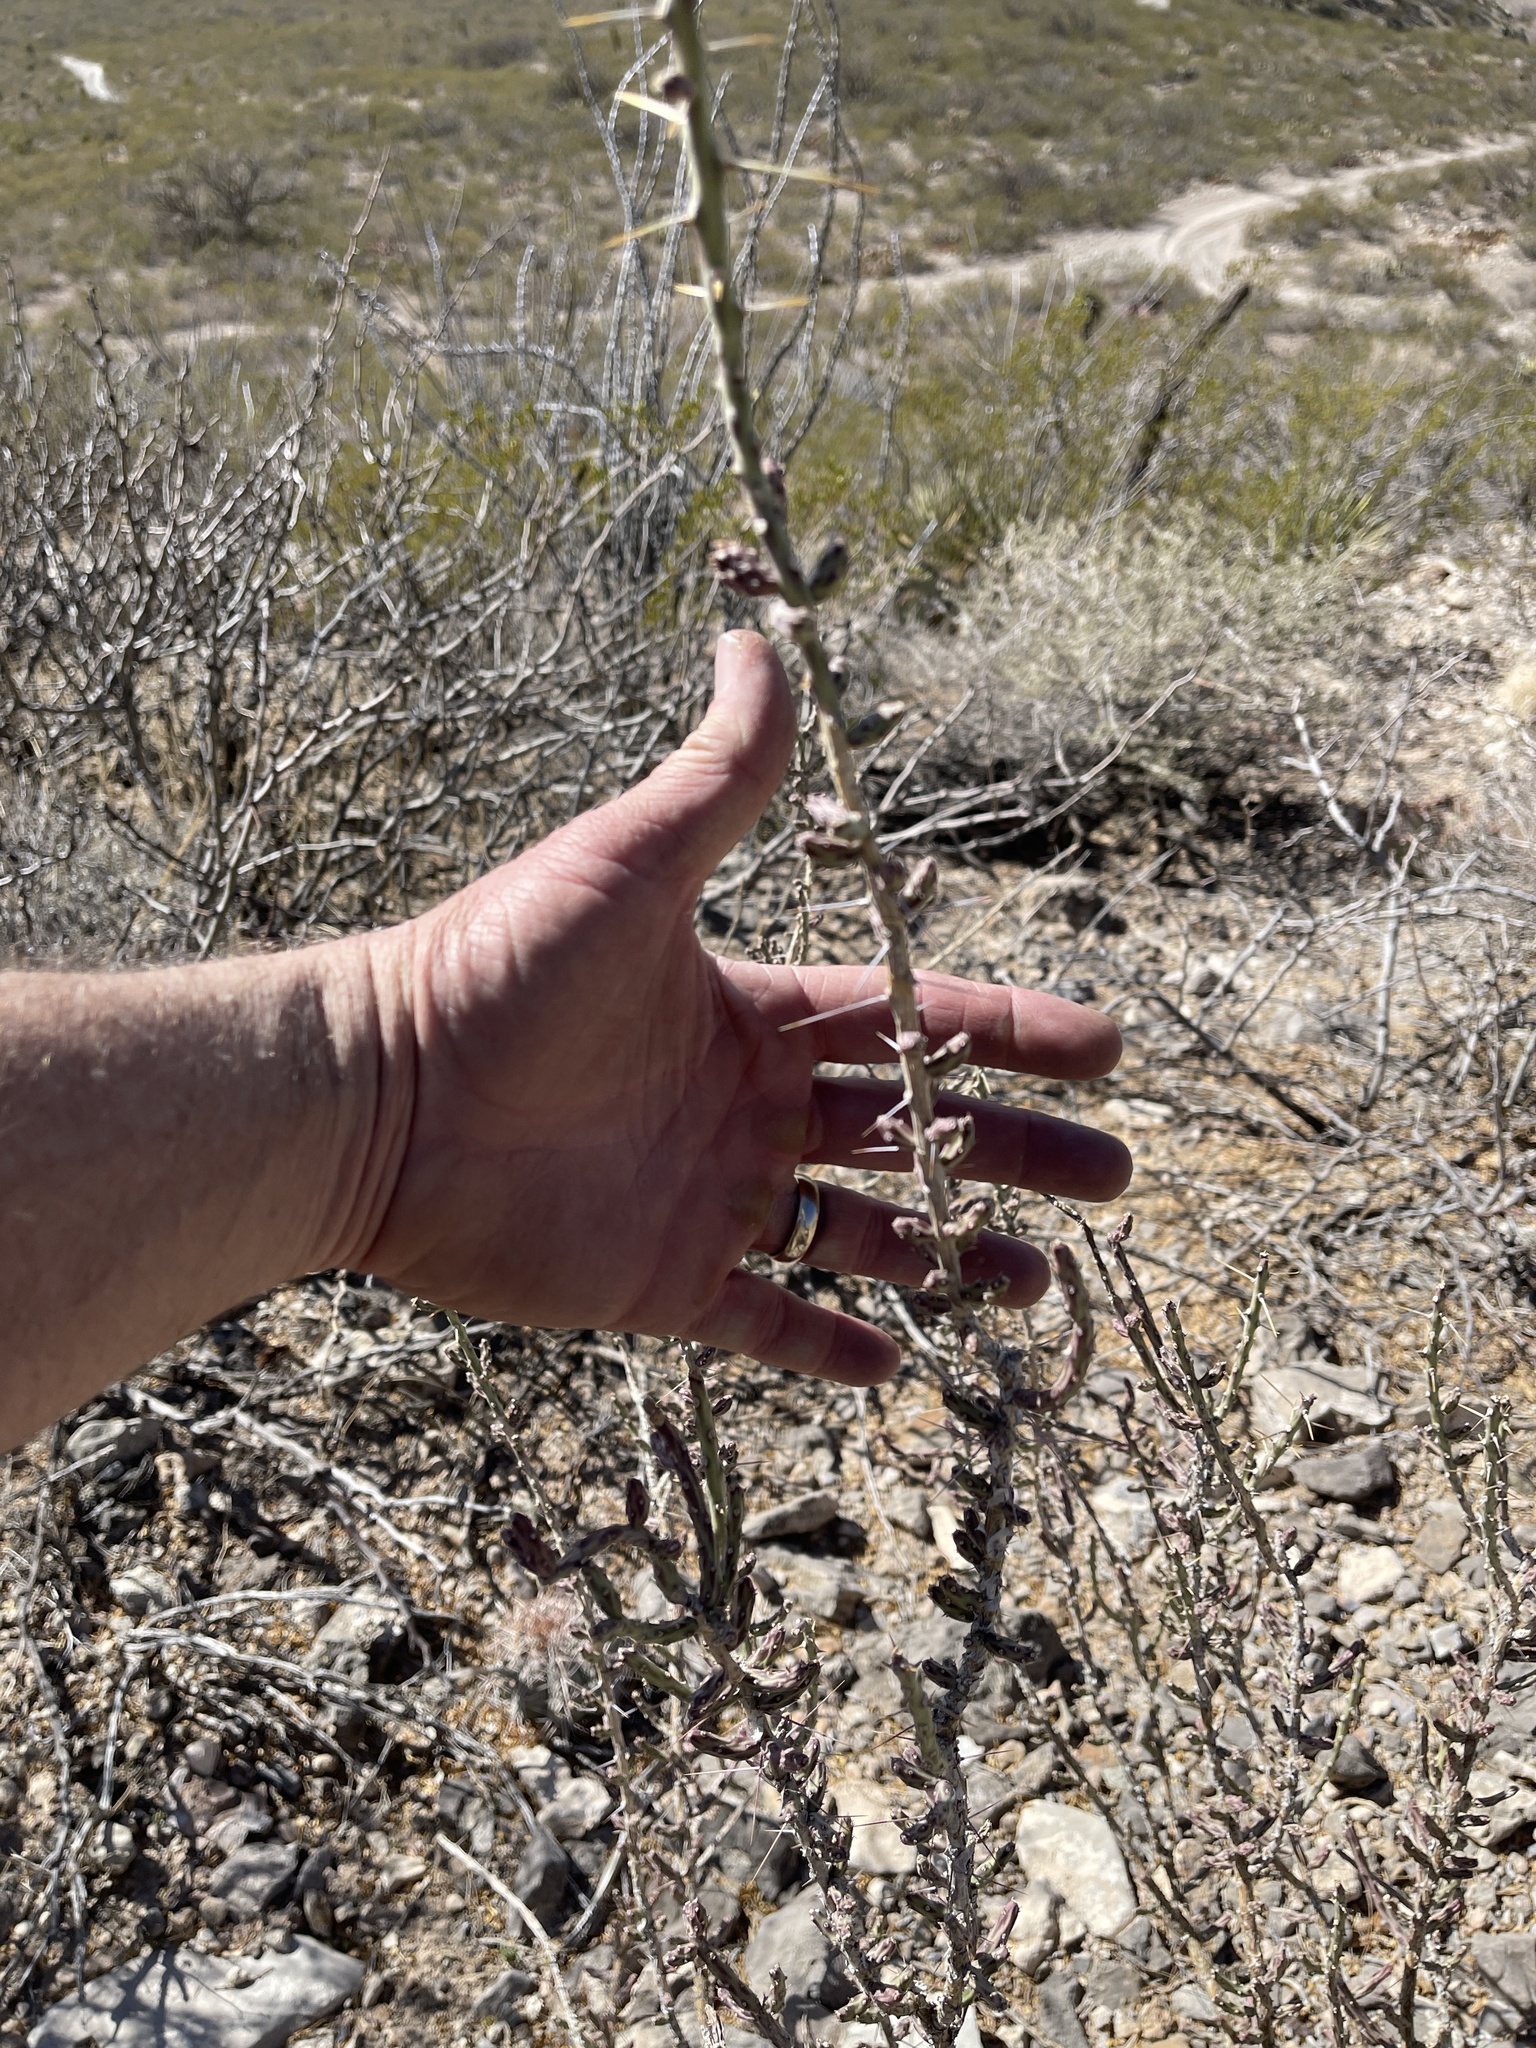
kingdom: Plantae
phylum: Tracheophyta
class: Magnoliopsida
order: Caryophyllales
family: Cactaceae
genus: Cylindropuntia
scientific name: Cylindropuntia leptocaulis
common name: Christmas cactus
